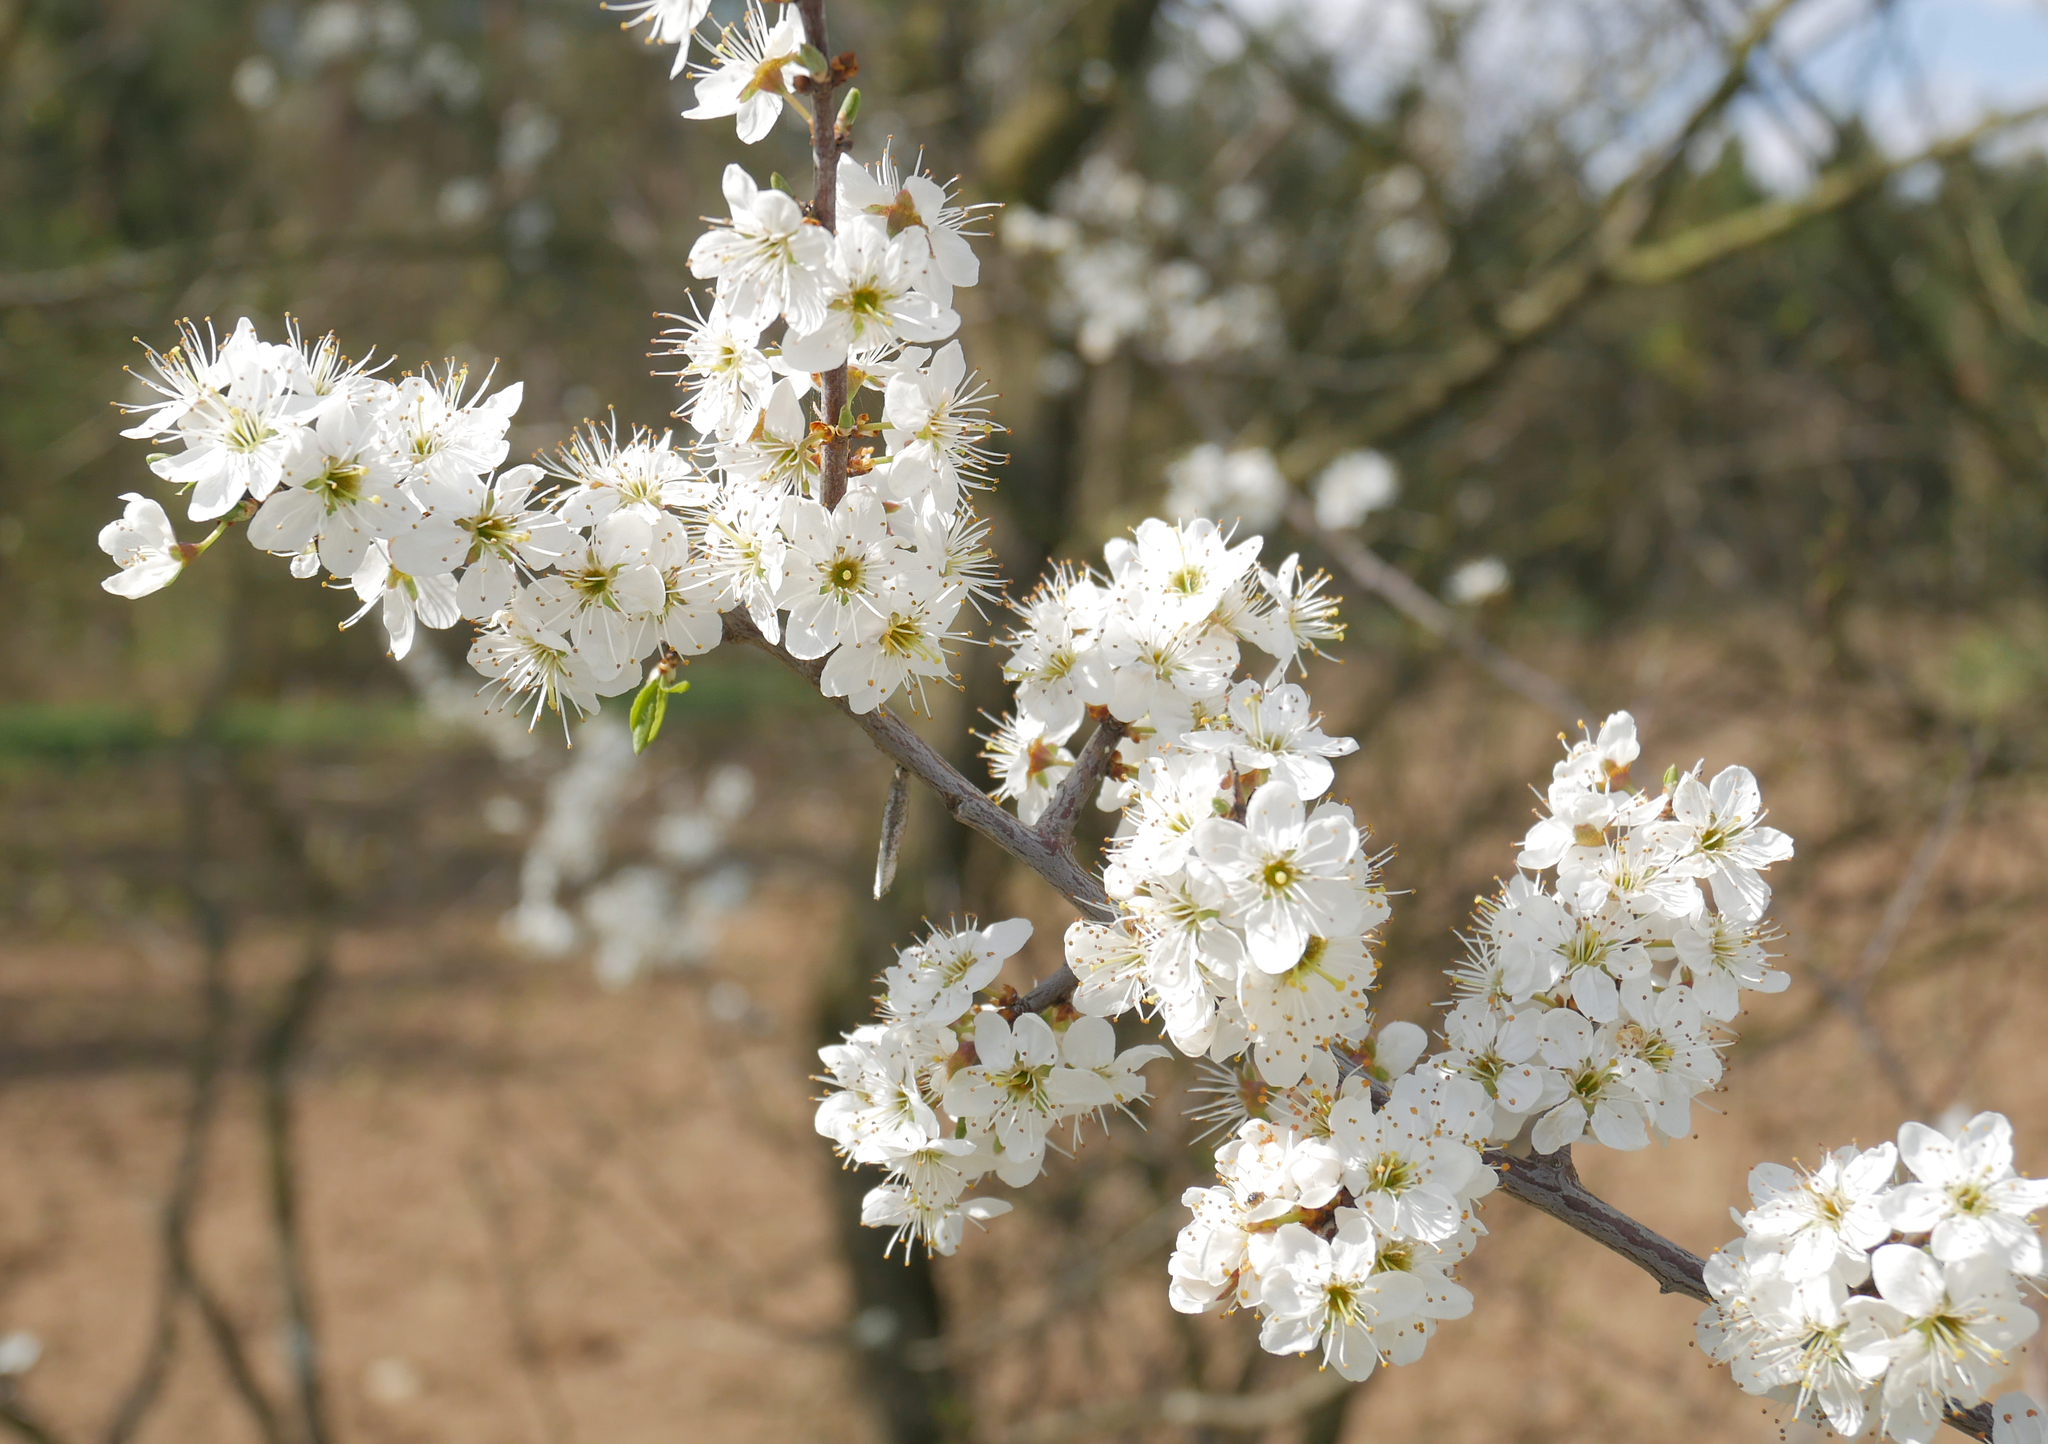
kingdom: Plantae
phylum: Tracheophyta
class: Magnoliopsida
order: Rosales
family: Rosaceae
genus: Prunus
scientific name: Prunus spinosa
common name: Blackthorn
